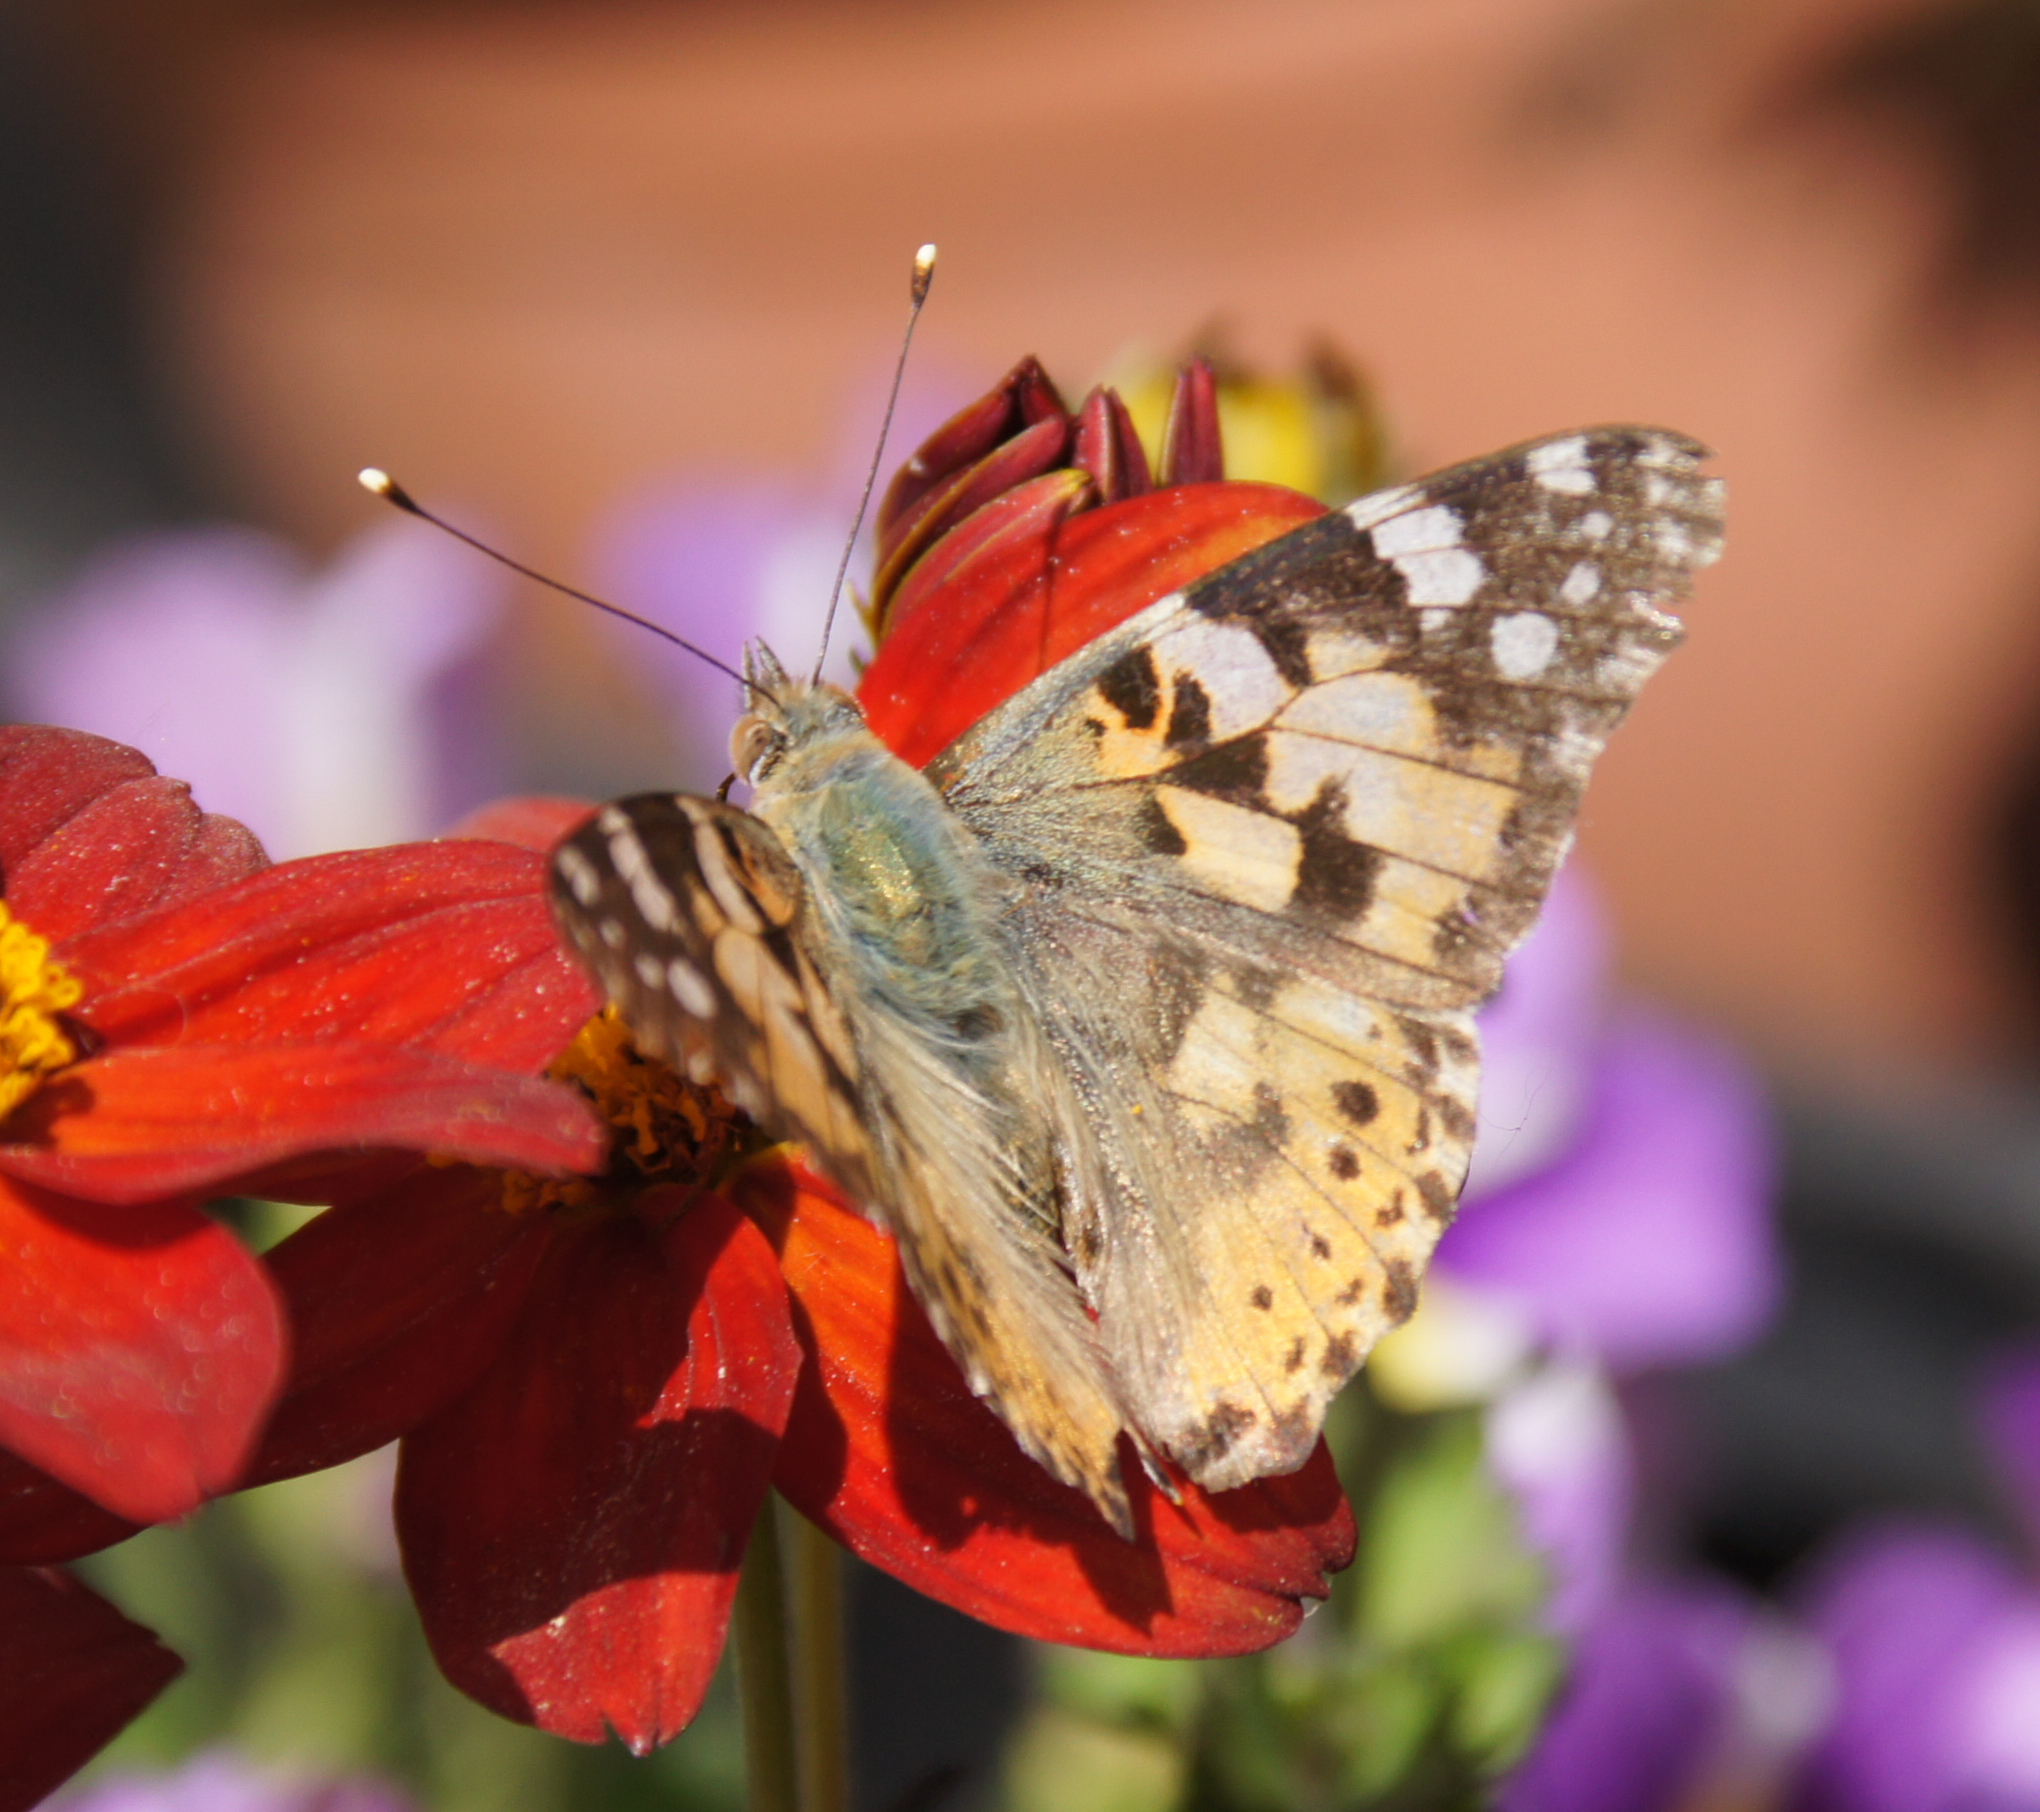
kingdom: Animalia
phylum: Arthropoda
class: Insecta
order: Lepidoptera
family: Nymphalidae
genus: Vanessa
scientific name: Vanessa cardui
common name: Painted lady
